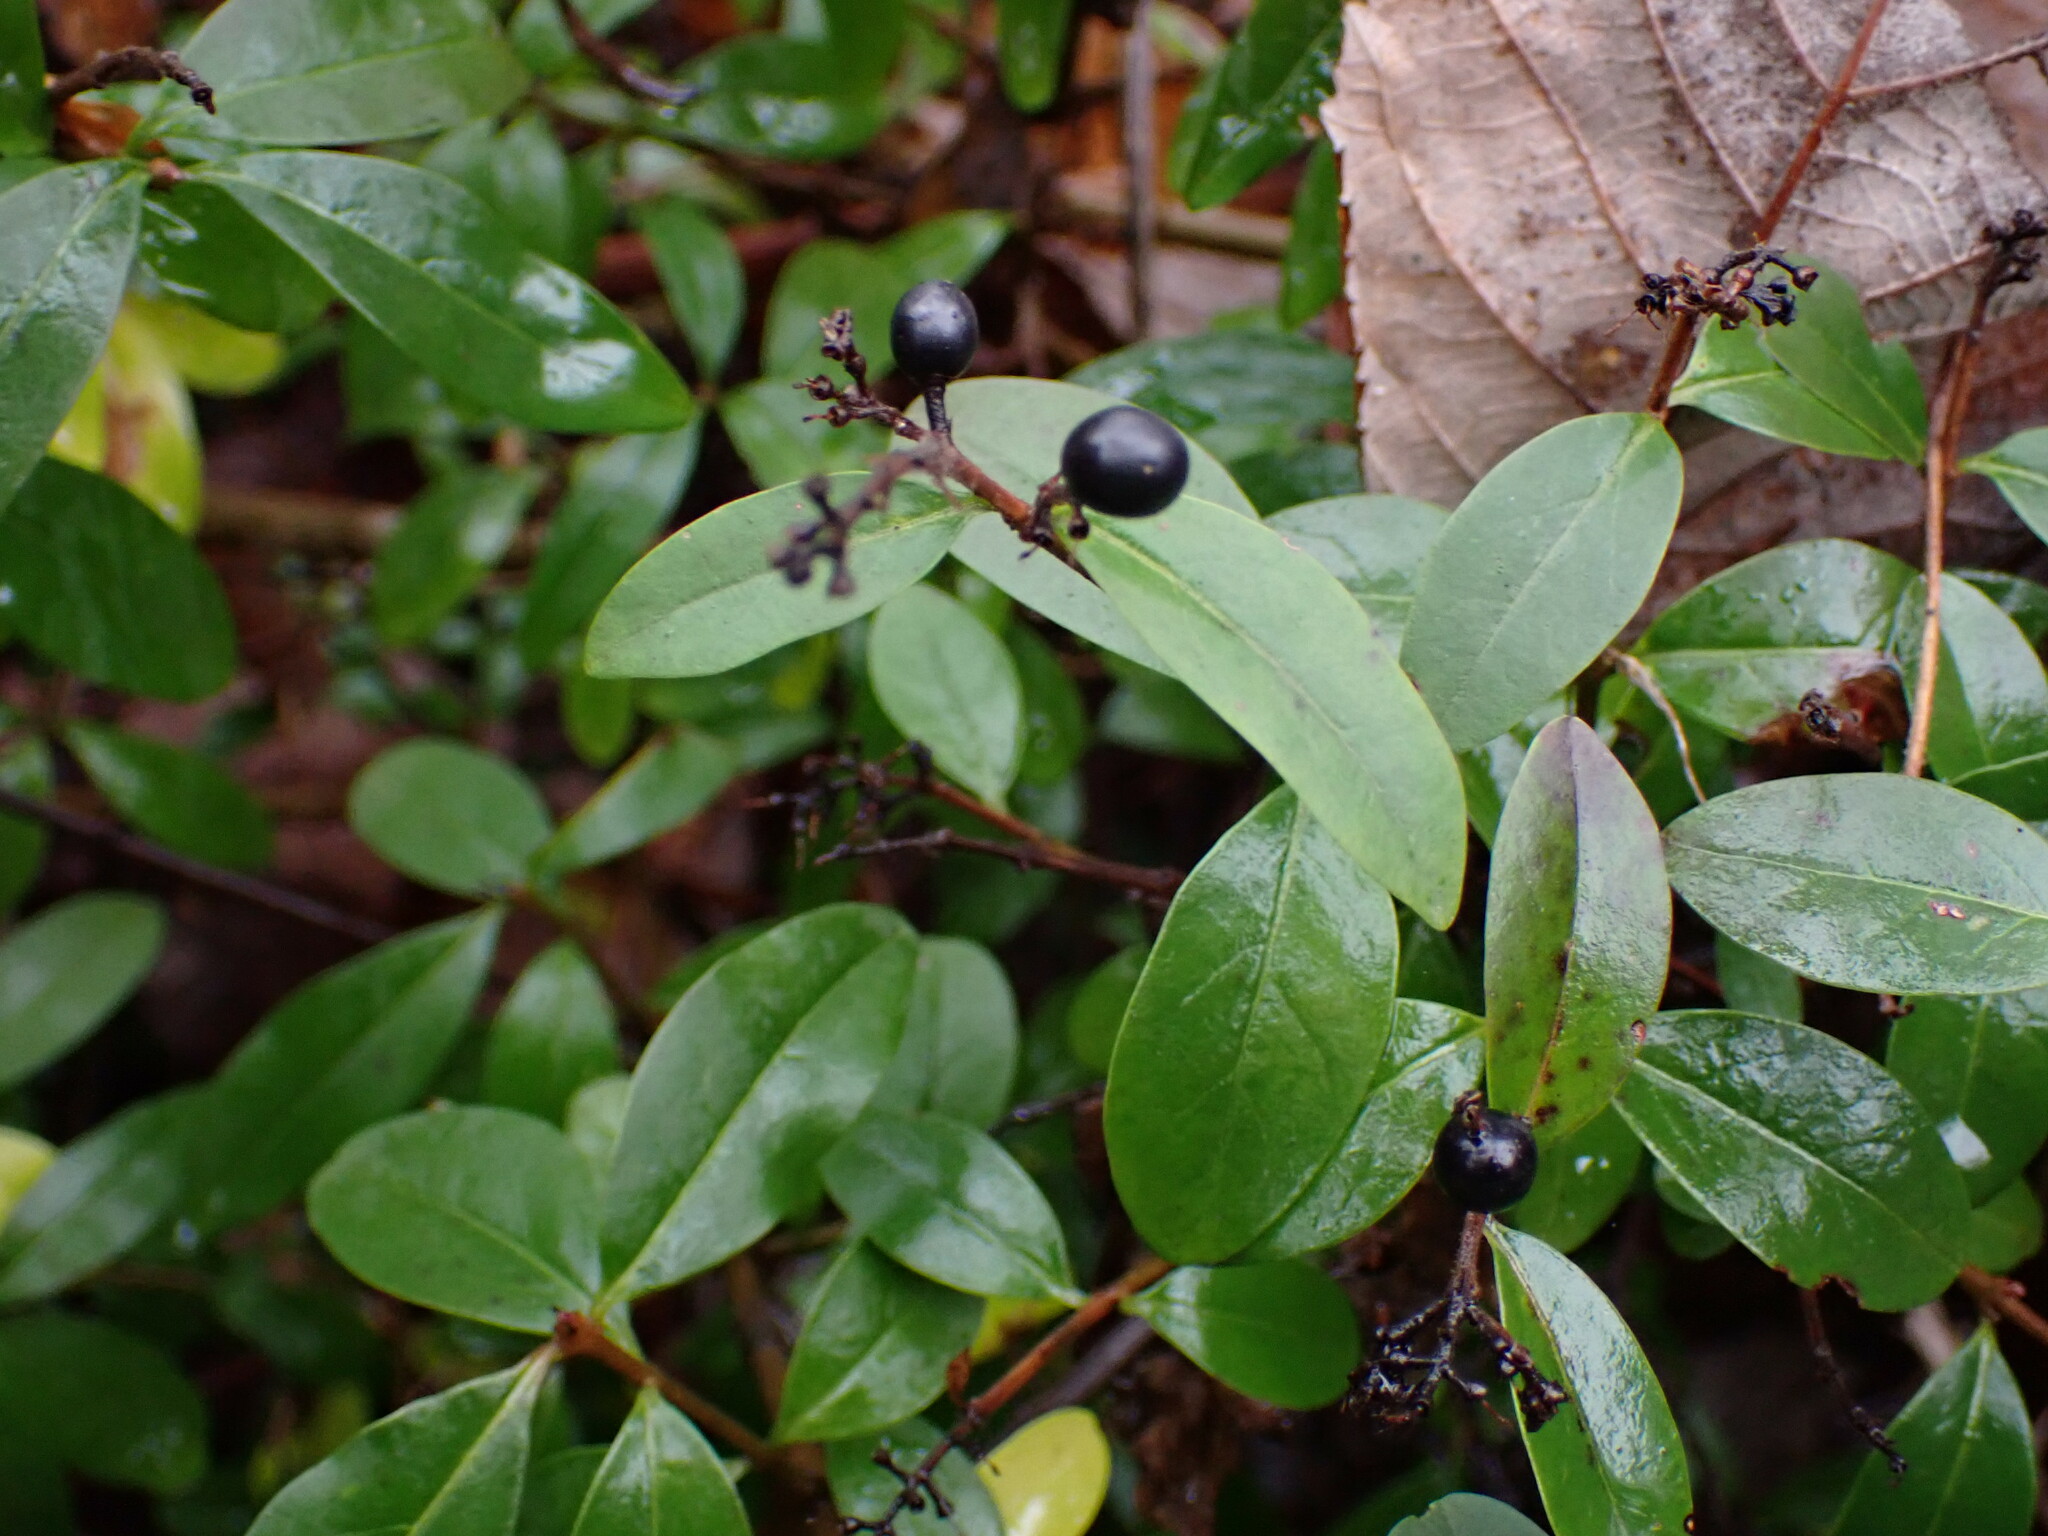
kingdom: Plantae
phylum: Tracheophyta
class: Magnoliopsida
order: Lamiales
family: Oleaceae
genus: Ligustrum
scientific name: Ligustrum vulgare
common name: Wild privet
